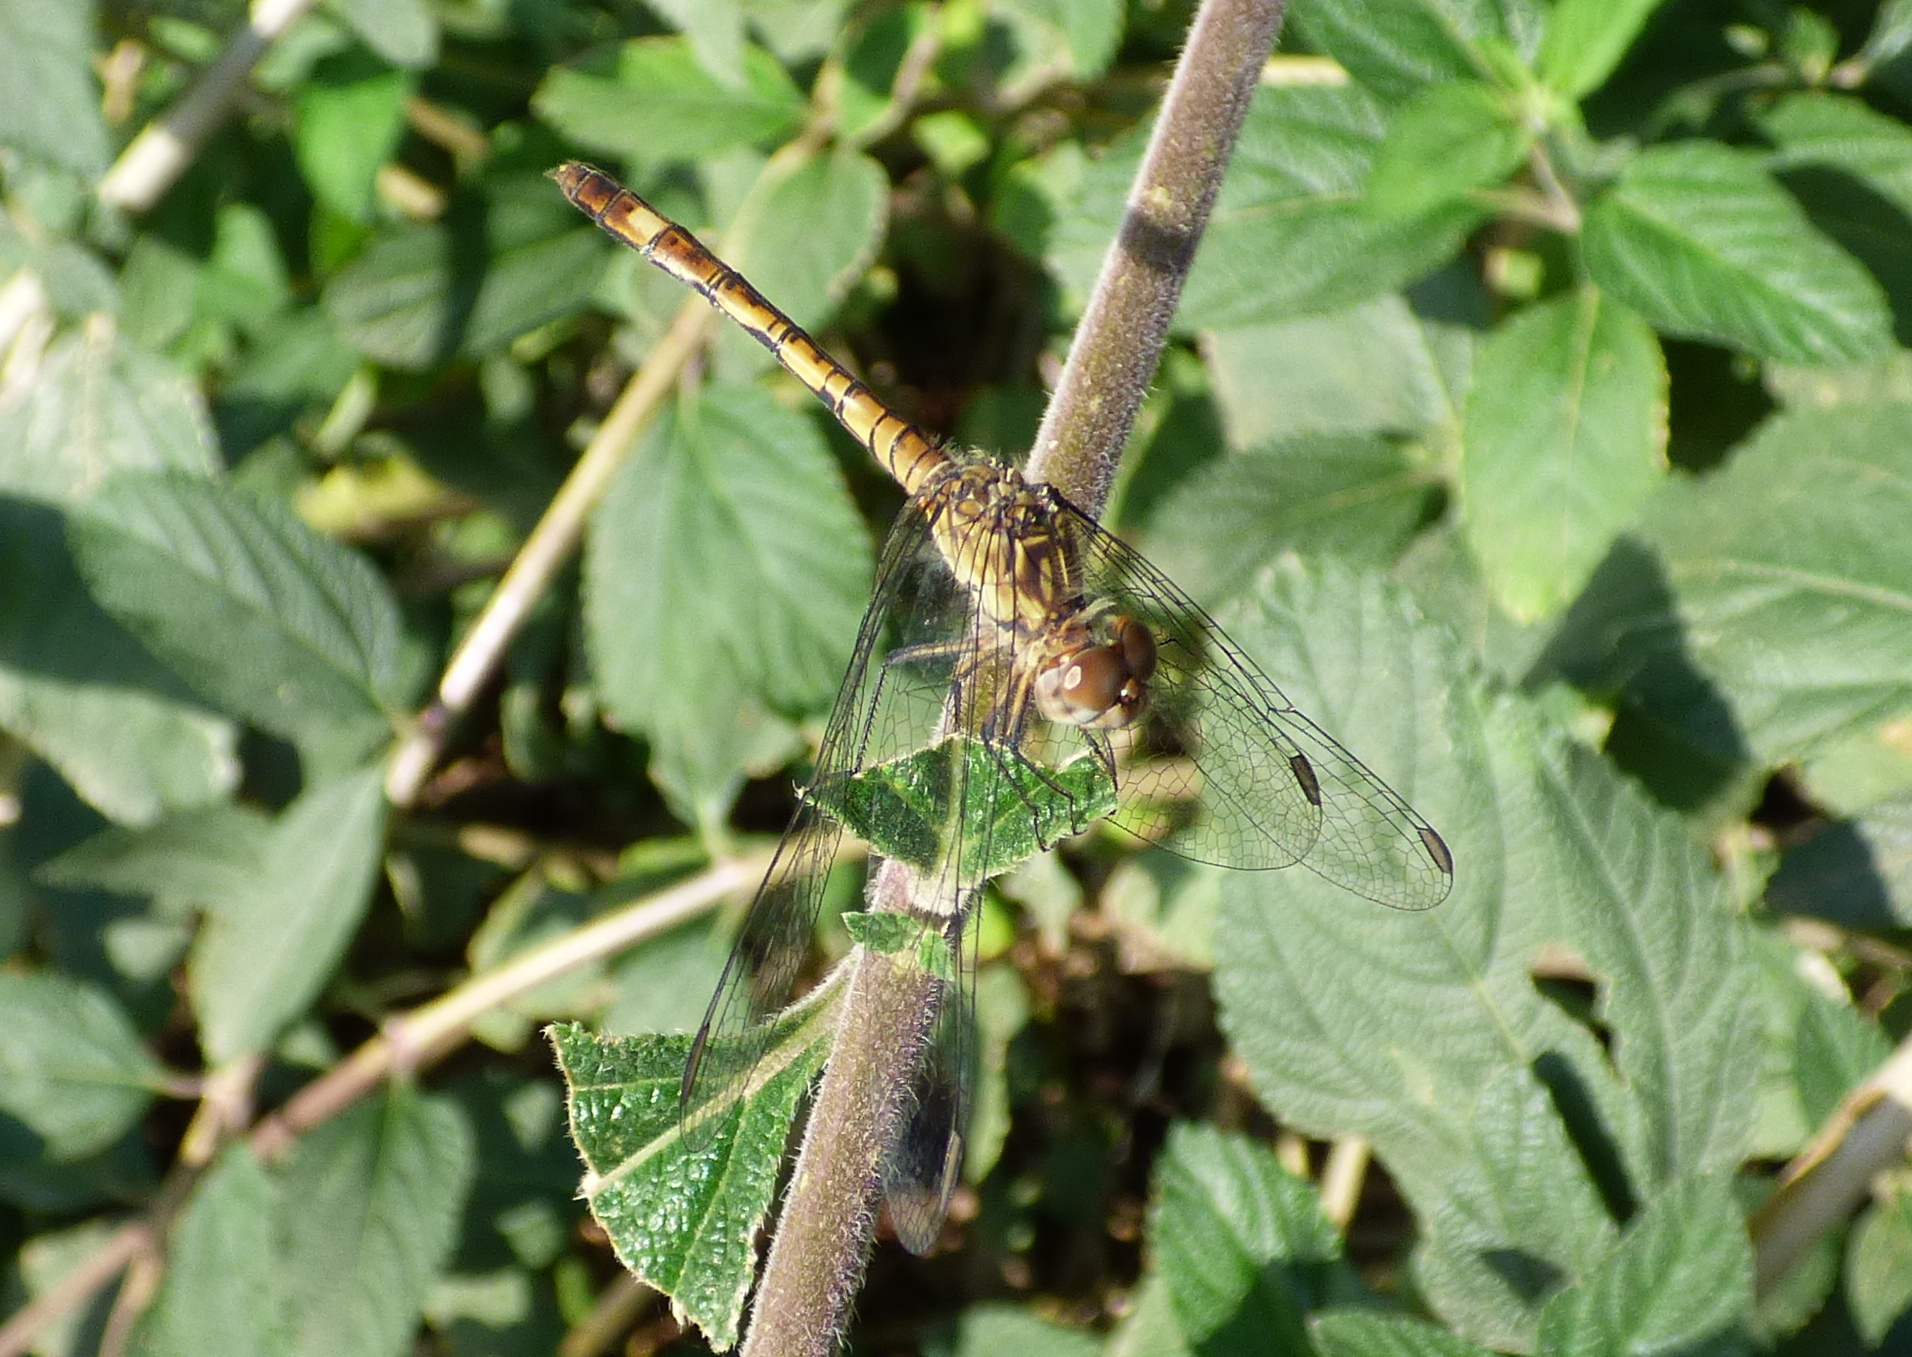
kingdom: Animalia
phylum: Arthropoda
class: Insecta
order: Odonata
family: Libellulidae
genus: Micrathyria
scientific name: Micrathyria longifasciata
